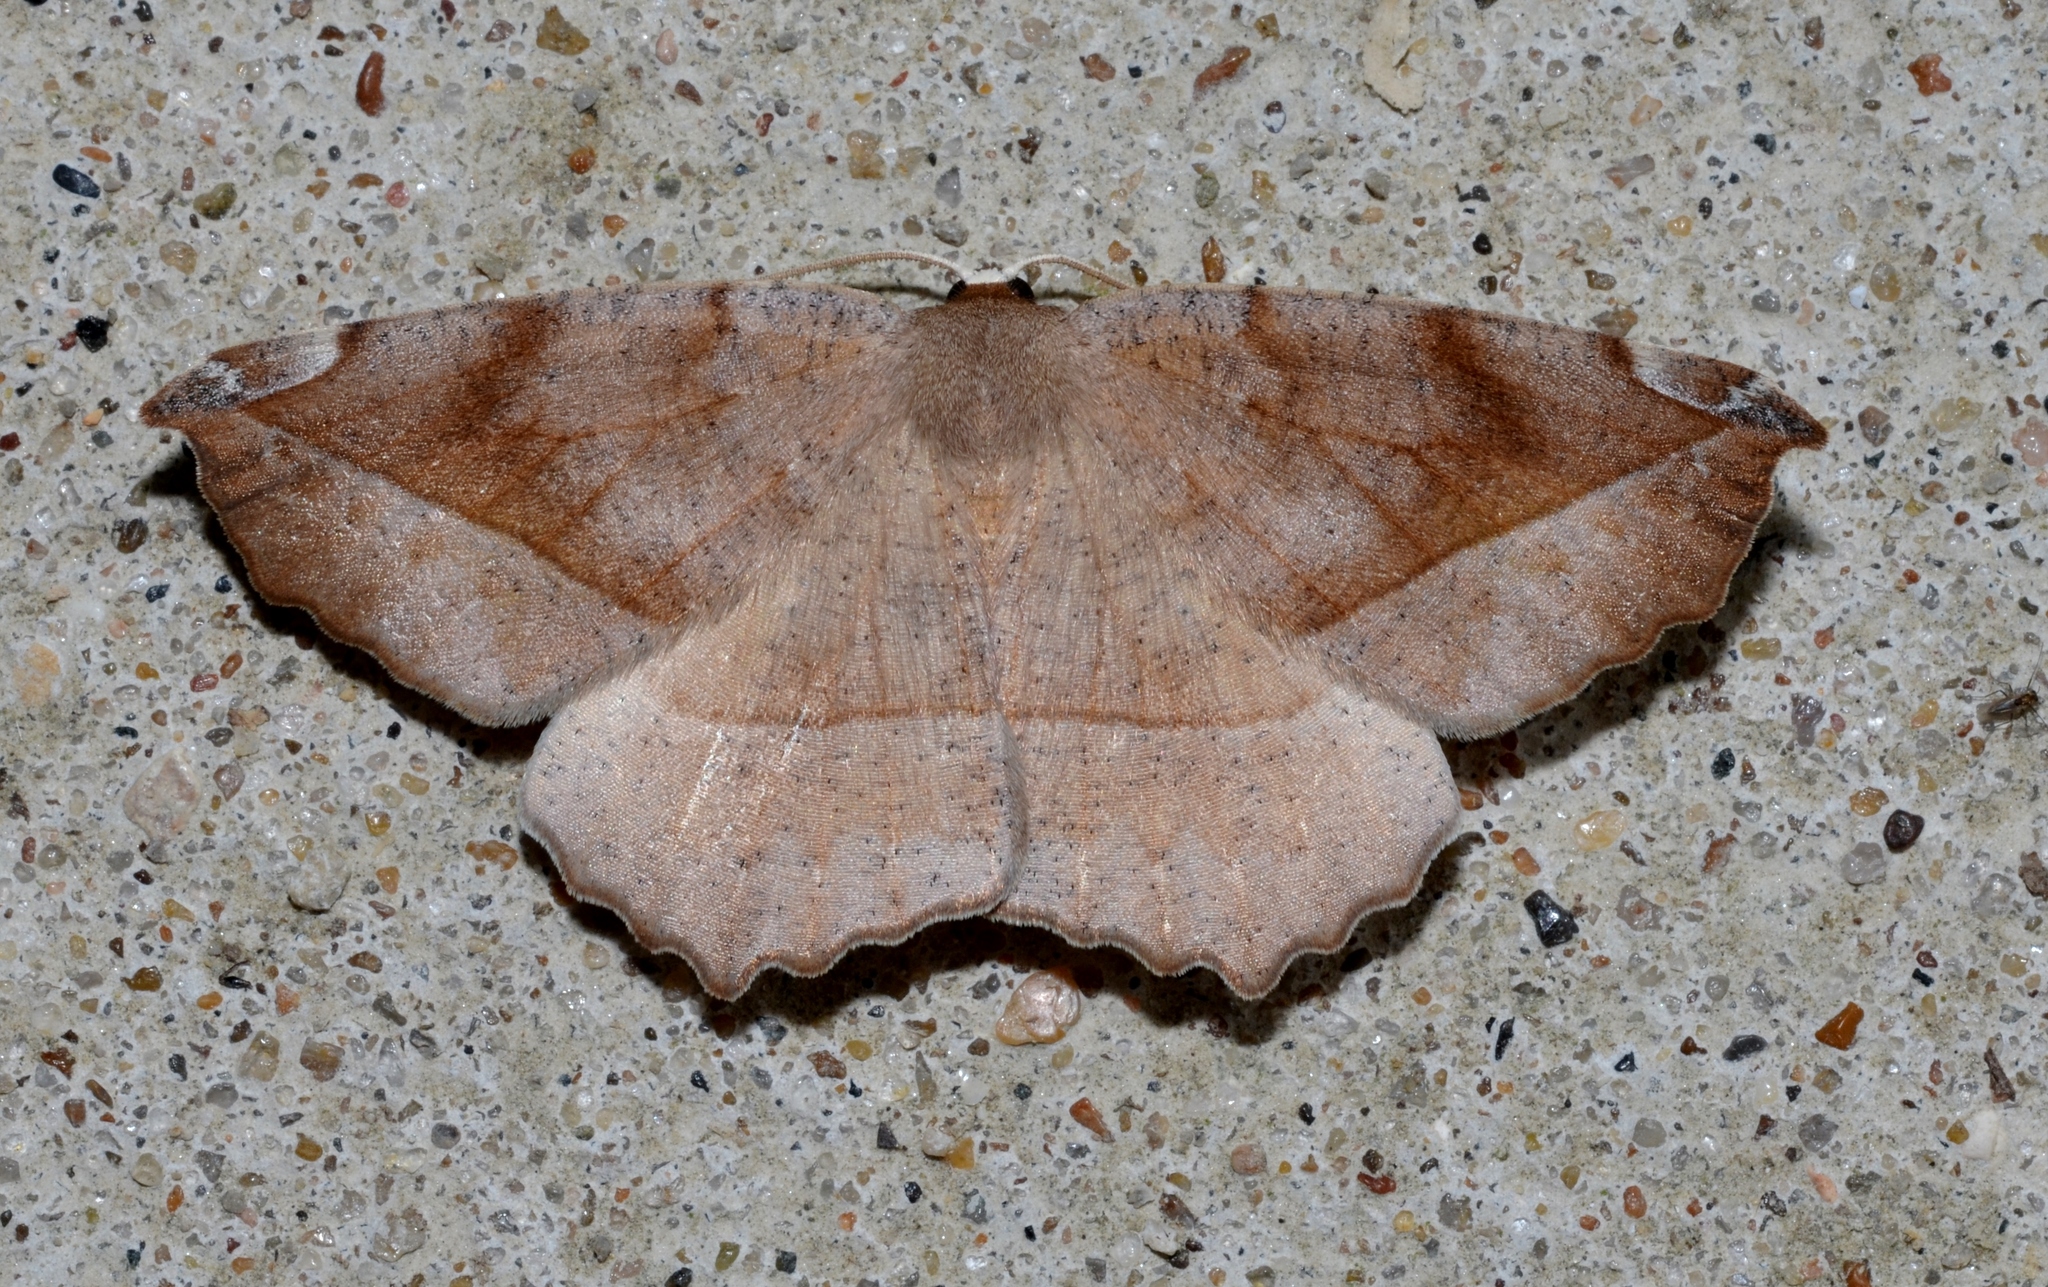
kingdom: Animalia
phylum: Arthropoda
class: Insecta
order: Lepidoptera
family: Geometridae
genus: Eutrapela
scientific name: Eutrapela clemataria
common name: Curved-toothed geometer
